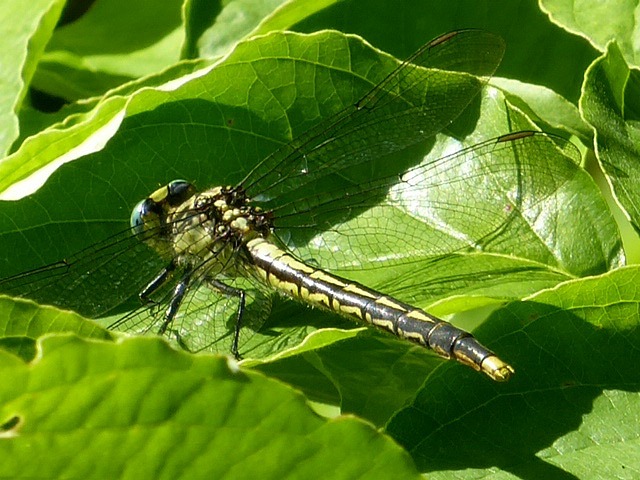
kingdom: Animalia
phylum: Arthropoda
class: Insecta
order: Odonata
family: Gomphidae
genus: Arigomphus
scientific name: Arigomphus furcifer
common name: Lilypad clubtail
